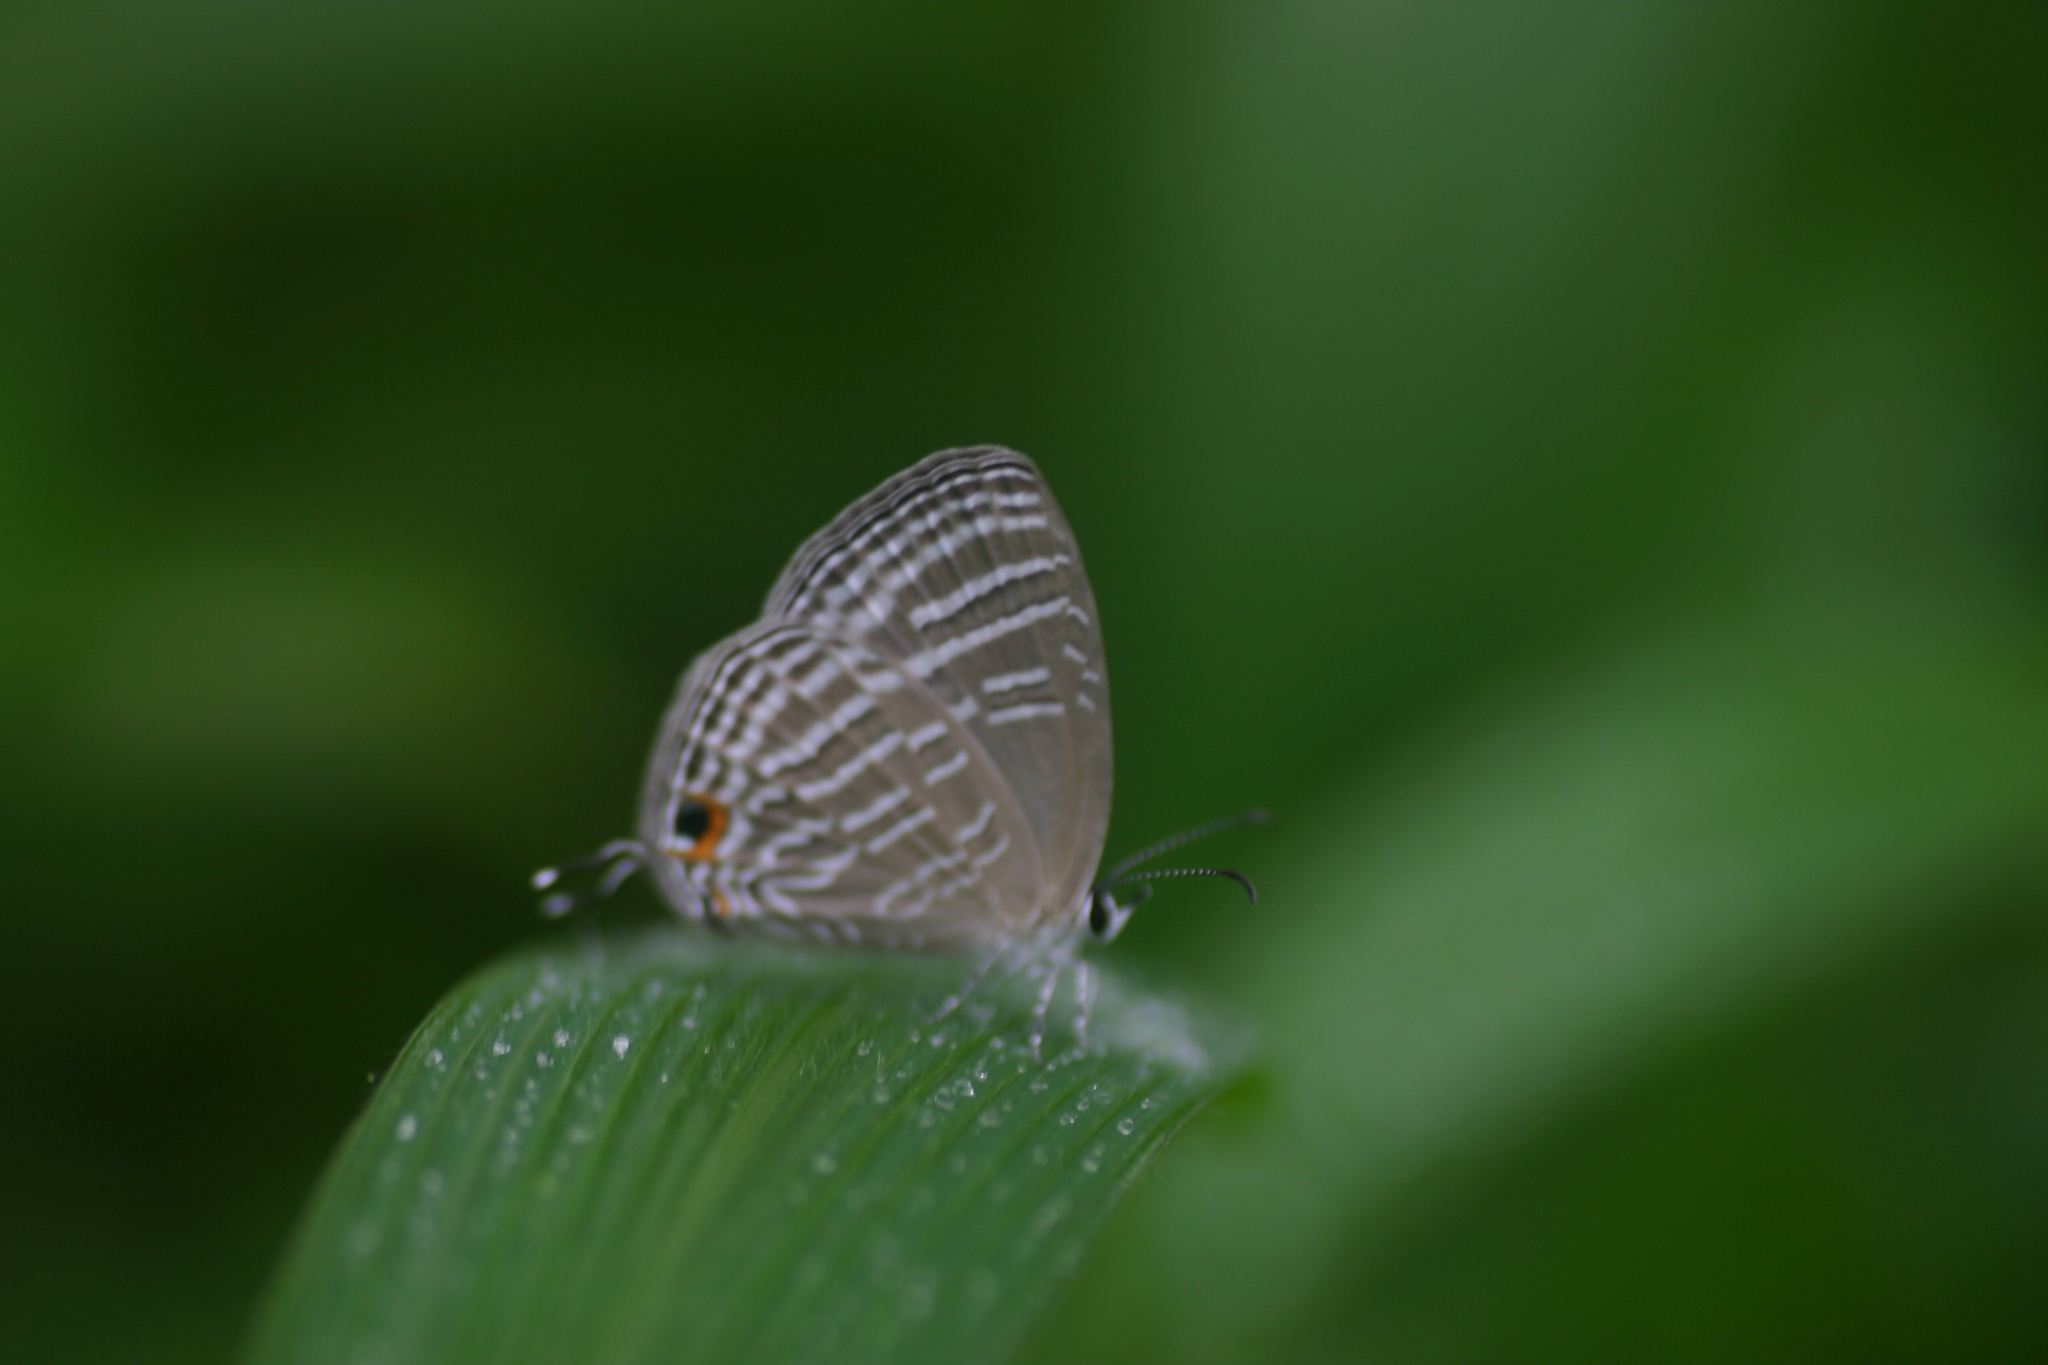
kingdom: Animalia
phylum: Arthropoda
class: Insecta
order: Lepidoptera
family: Lycaenidae
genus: Jamides
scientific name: Jamides celeno
